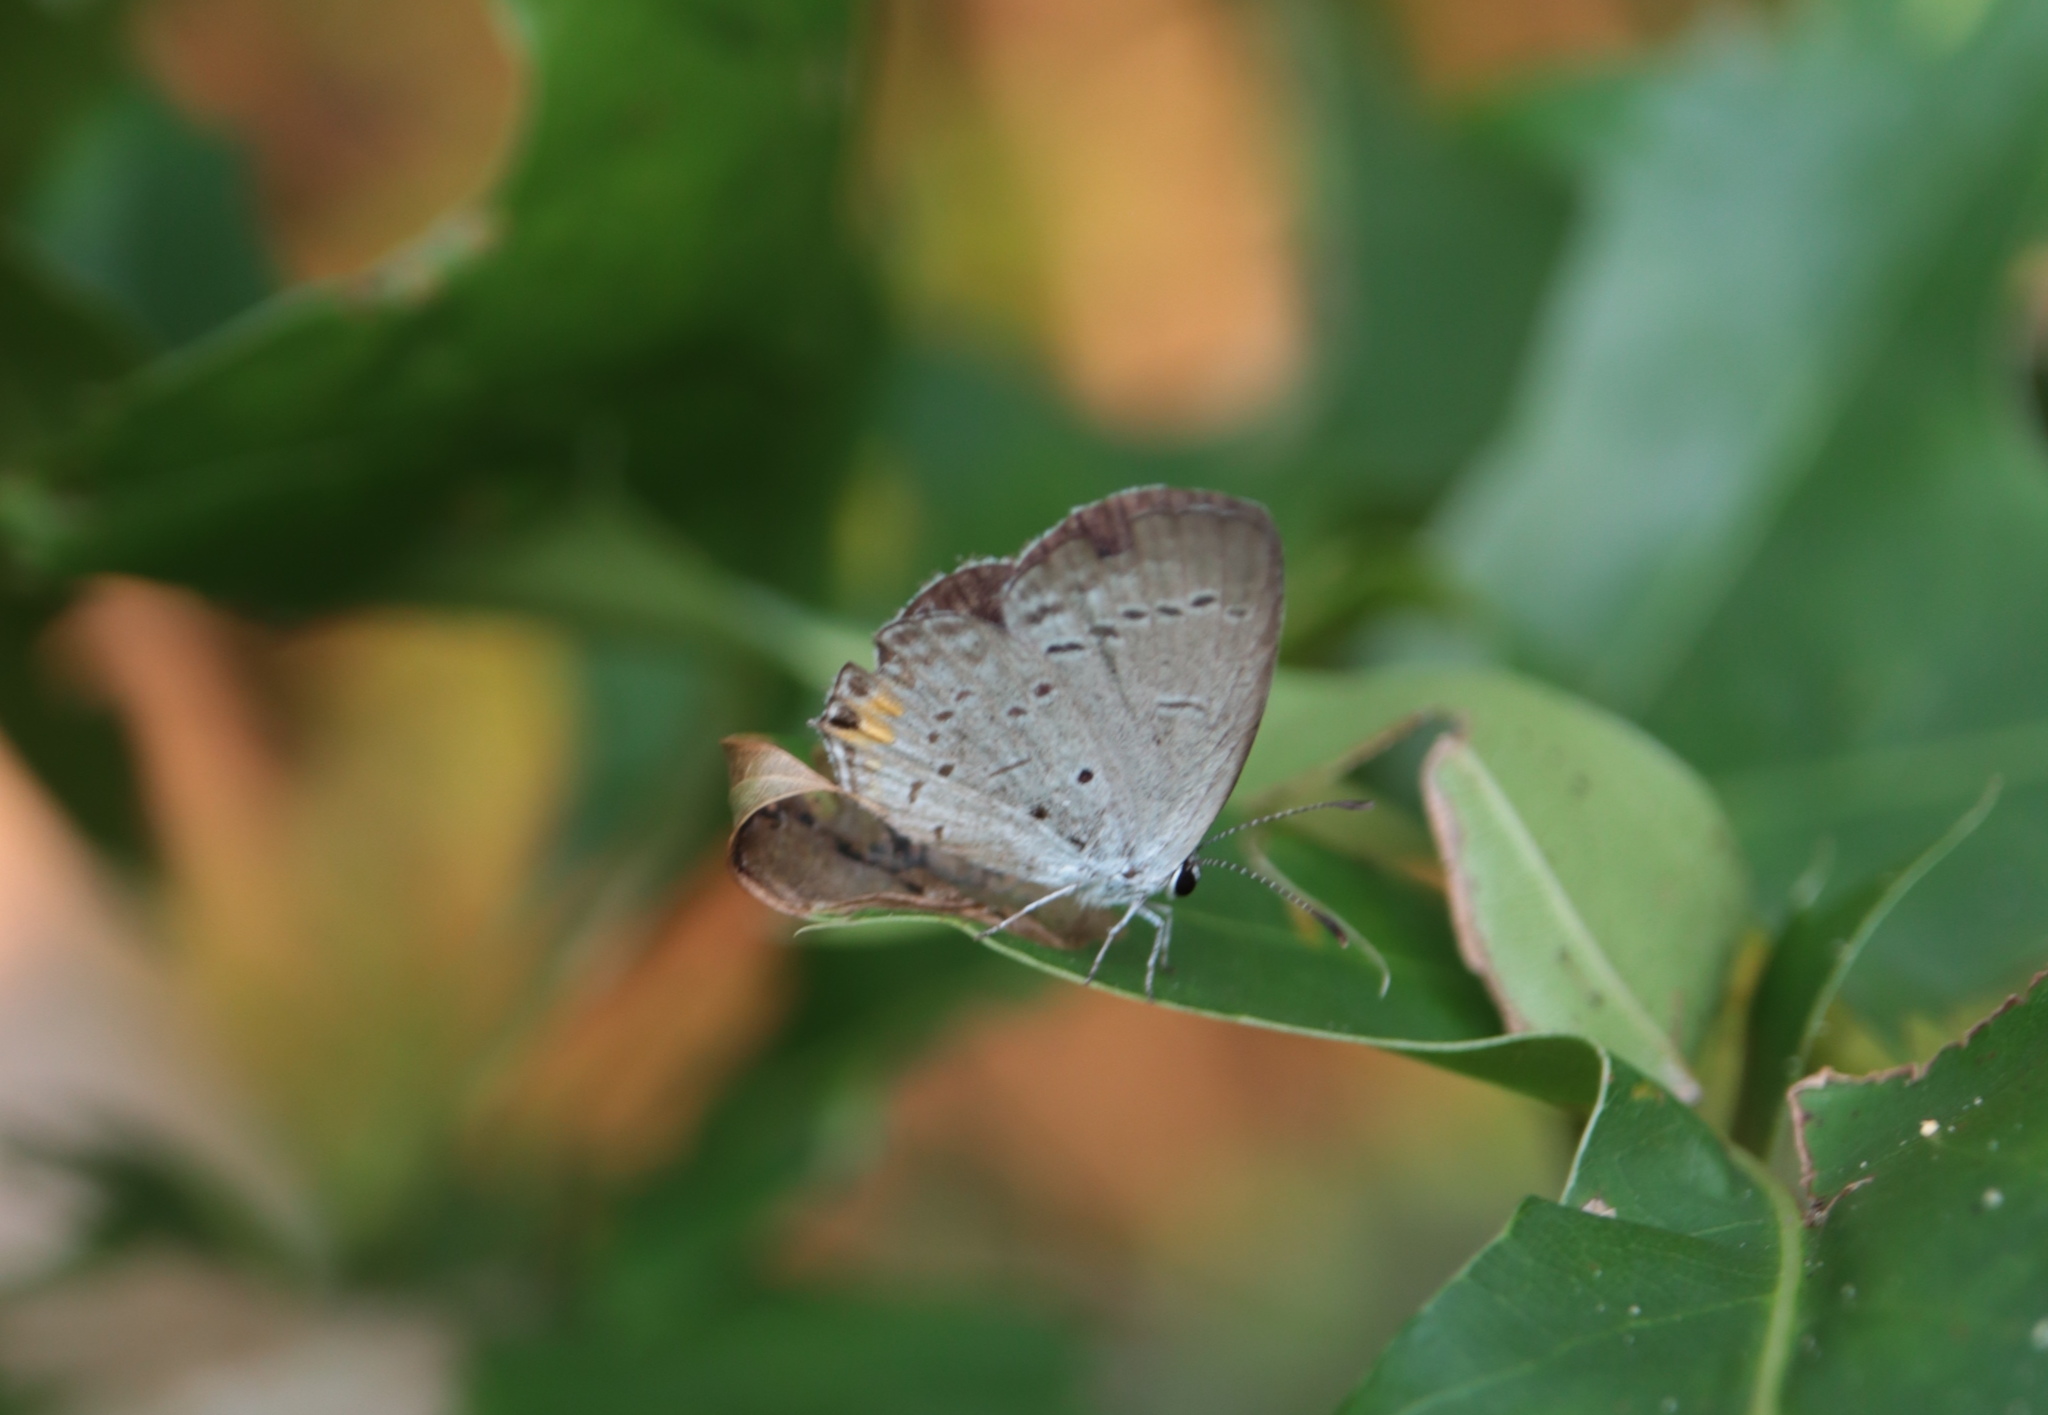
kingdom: Animalia
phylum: Arthropoda
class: Insecta
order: Lepidoptera
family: Lycaenidae
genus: Elkalyce
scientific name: Elkalyce comyntas
